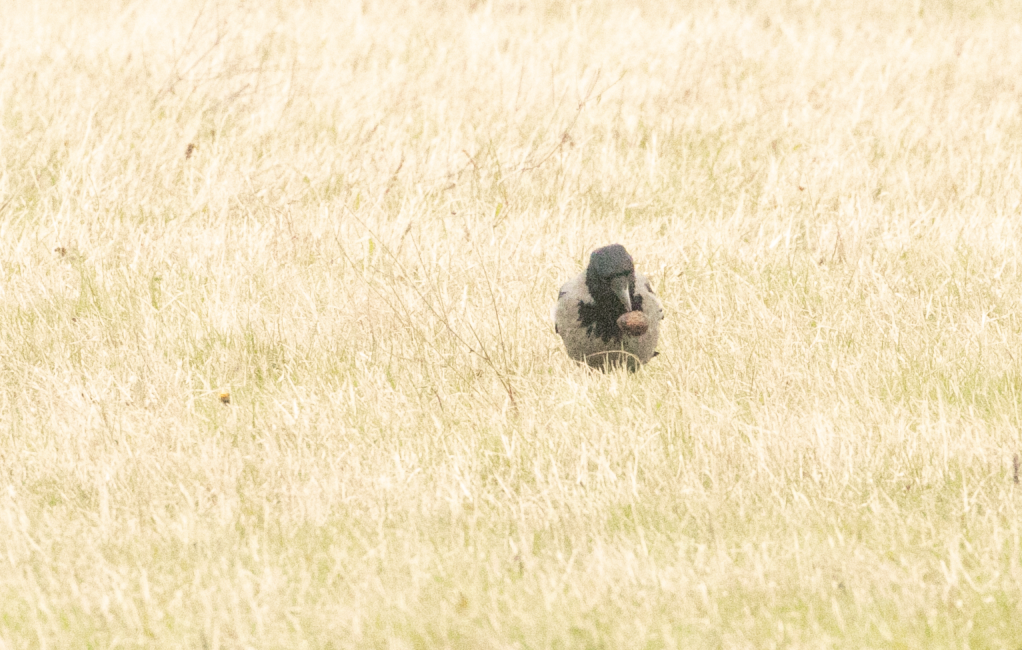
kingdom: Animalia
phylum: Chordata
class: Aves
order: Passeriformes
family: Corvidae
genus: Corvus
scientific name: Corvus cornix
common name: Hooded crow
